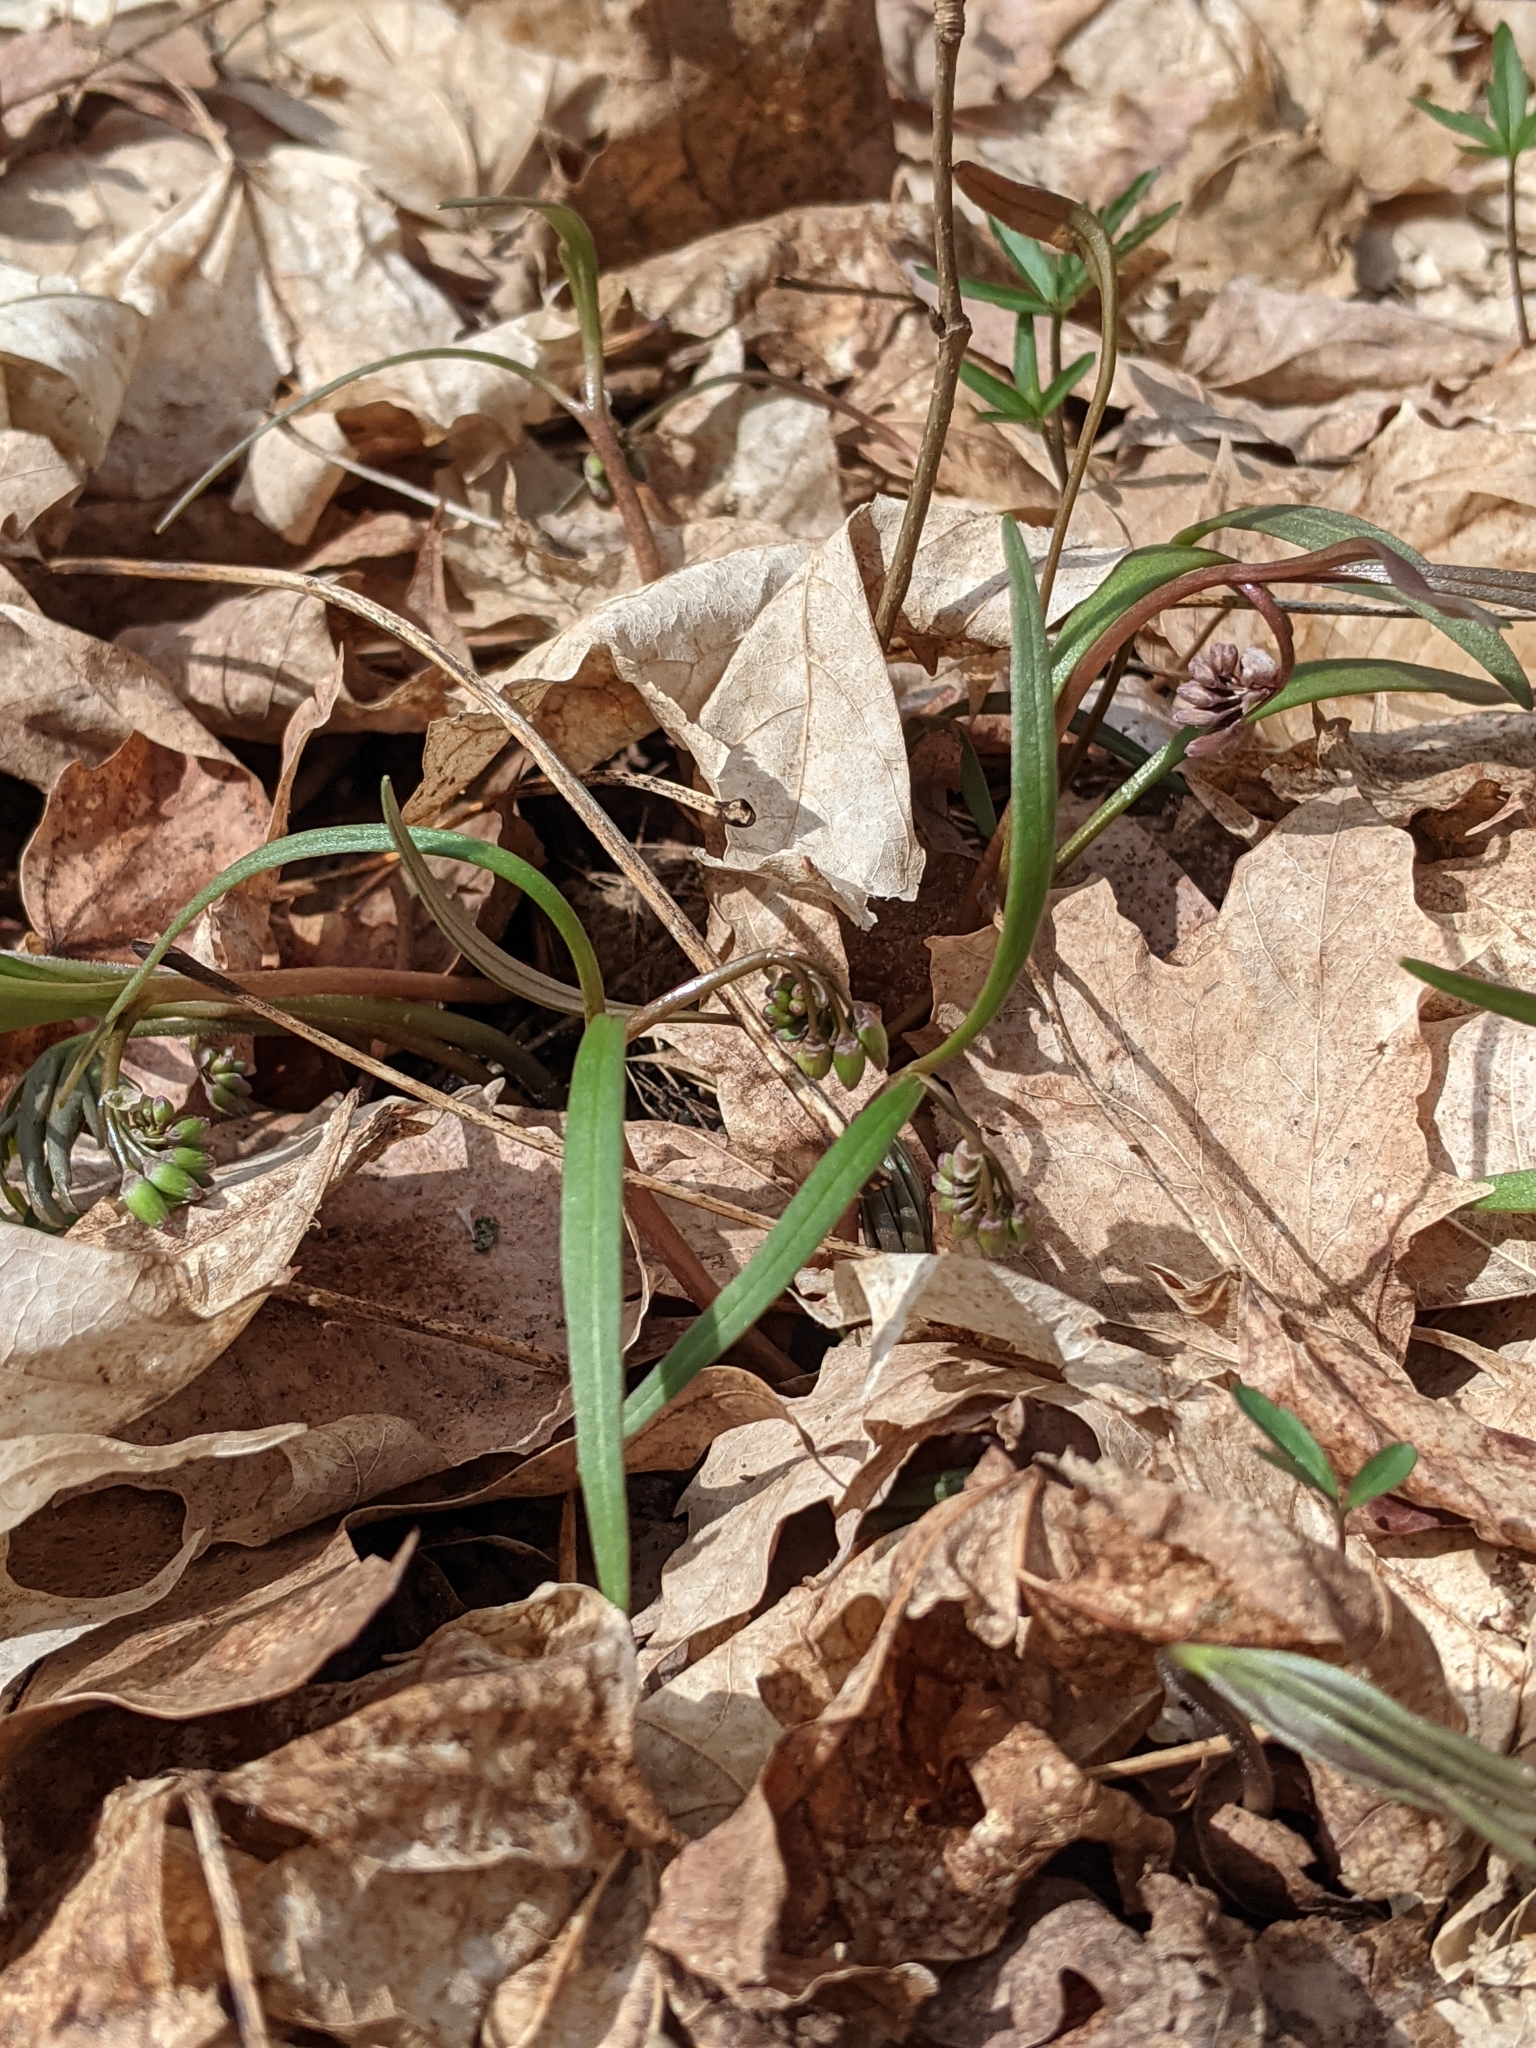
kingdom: Plantae
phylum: Tracheophyta
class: Magnoliopsida
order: Caryophyllales
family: Montiaceae
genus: Claytonia
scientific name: Claytonia virginica
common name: Virginia springbeauty
